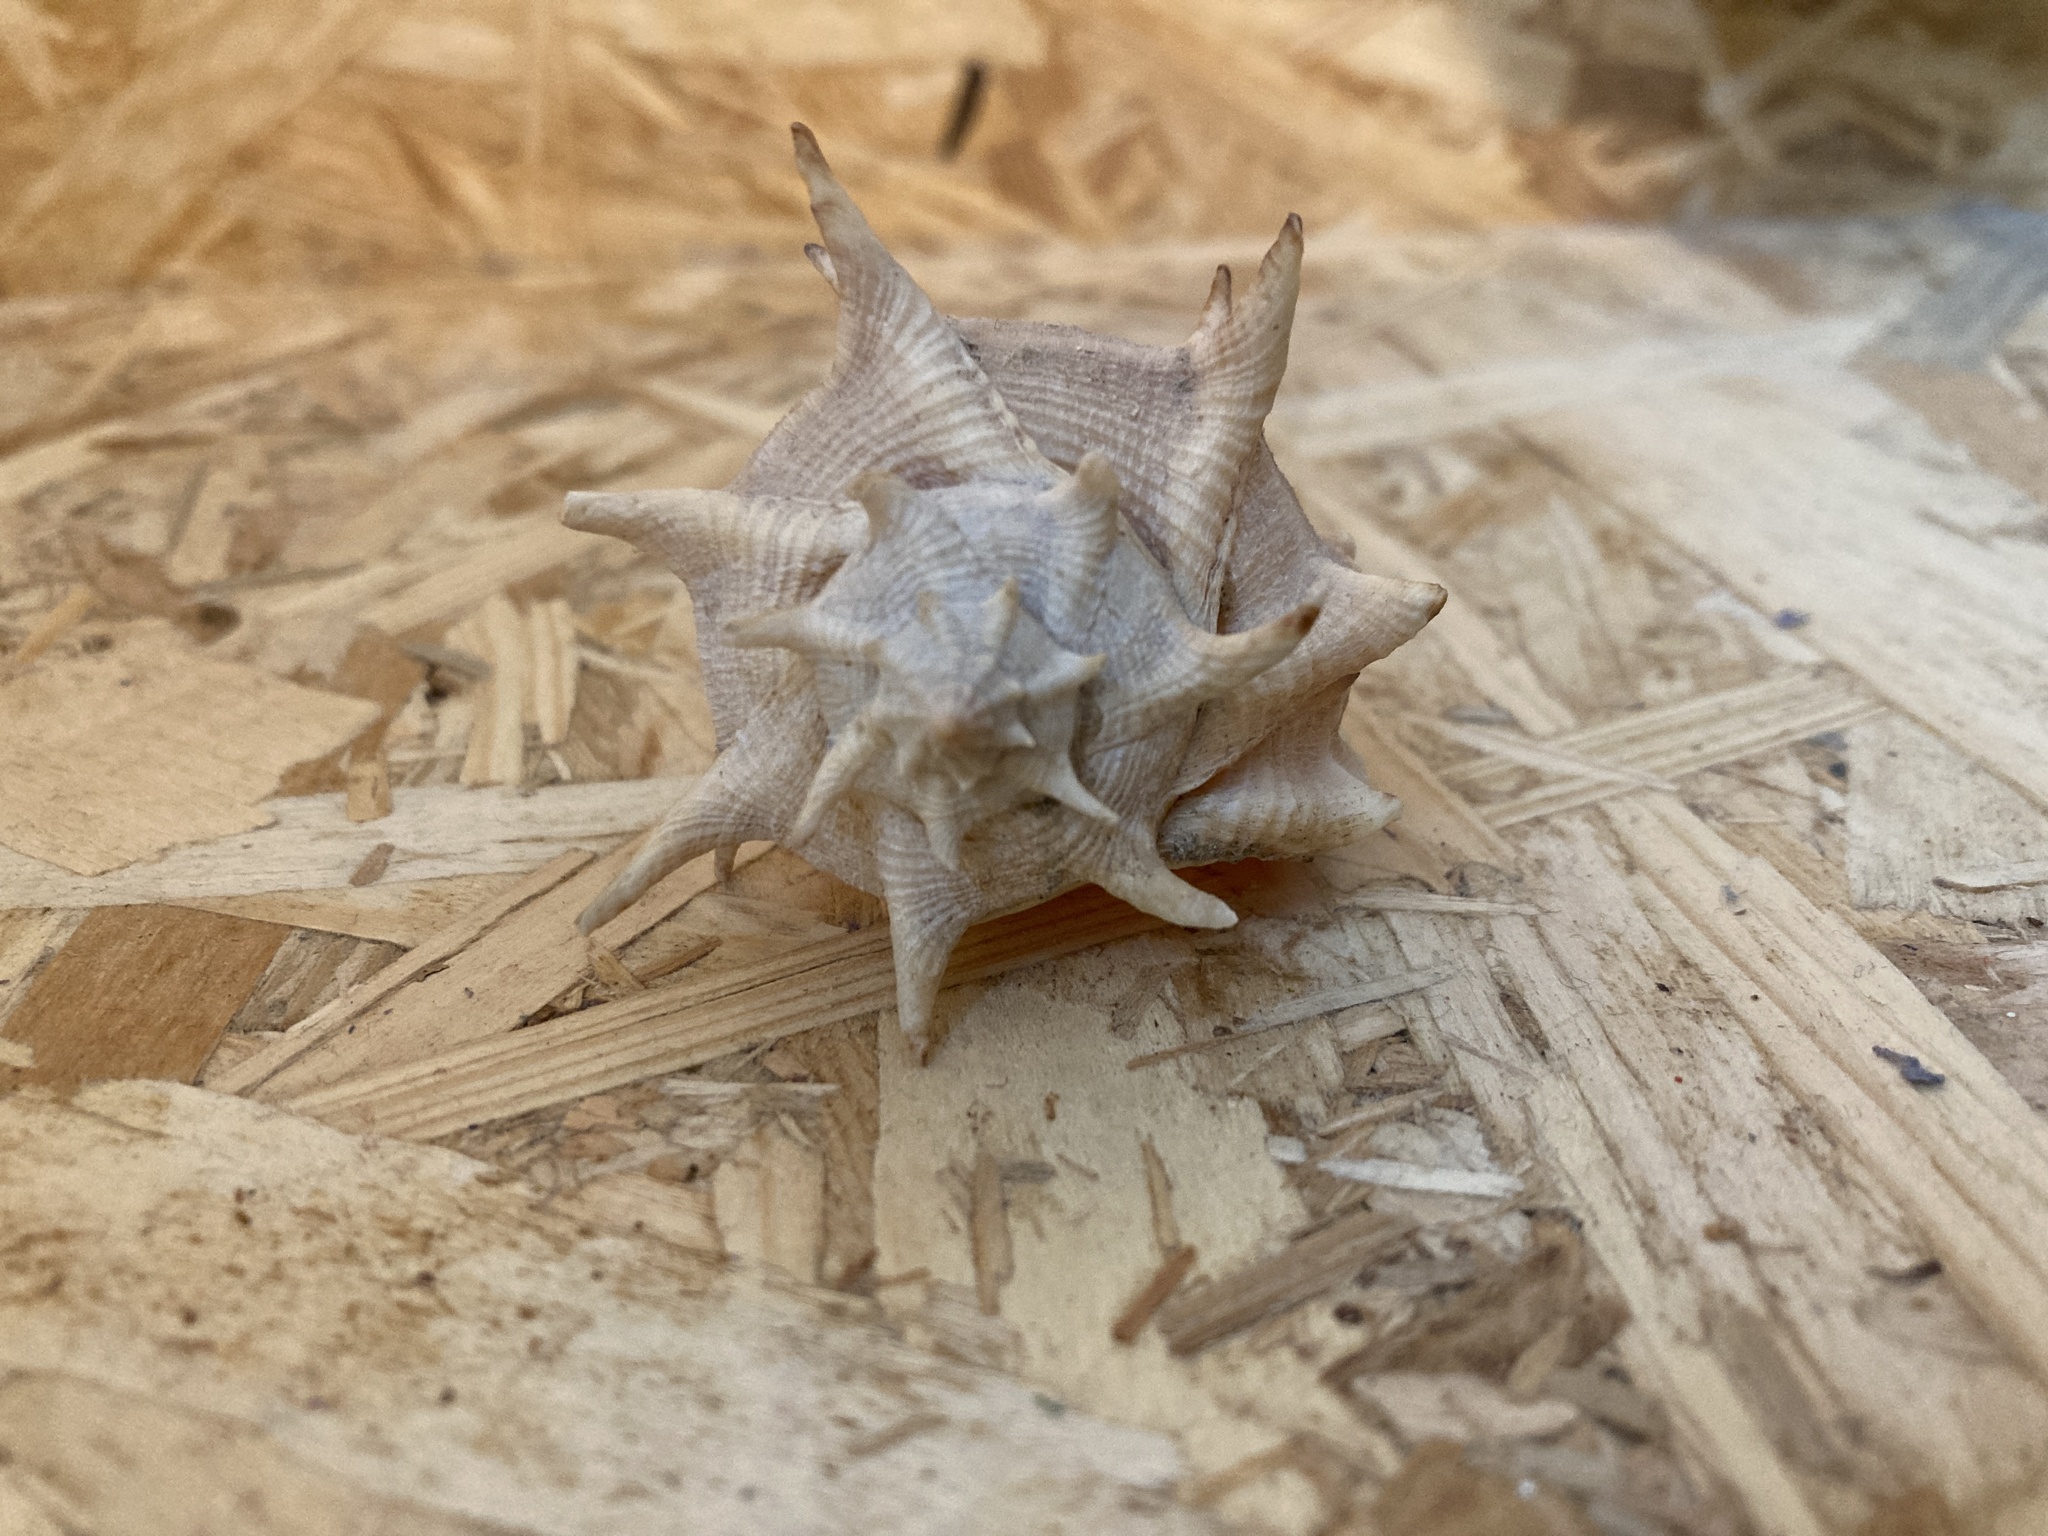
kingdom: Animalia
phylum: Mollusca
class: Gastropoda
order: Neogastropoda
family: Muricidae
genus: Bolinus
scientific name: Bolinus brandaris
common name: Dye murex
